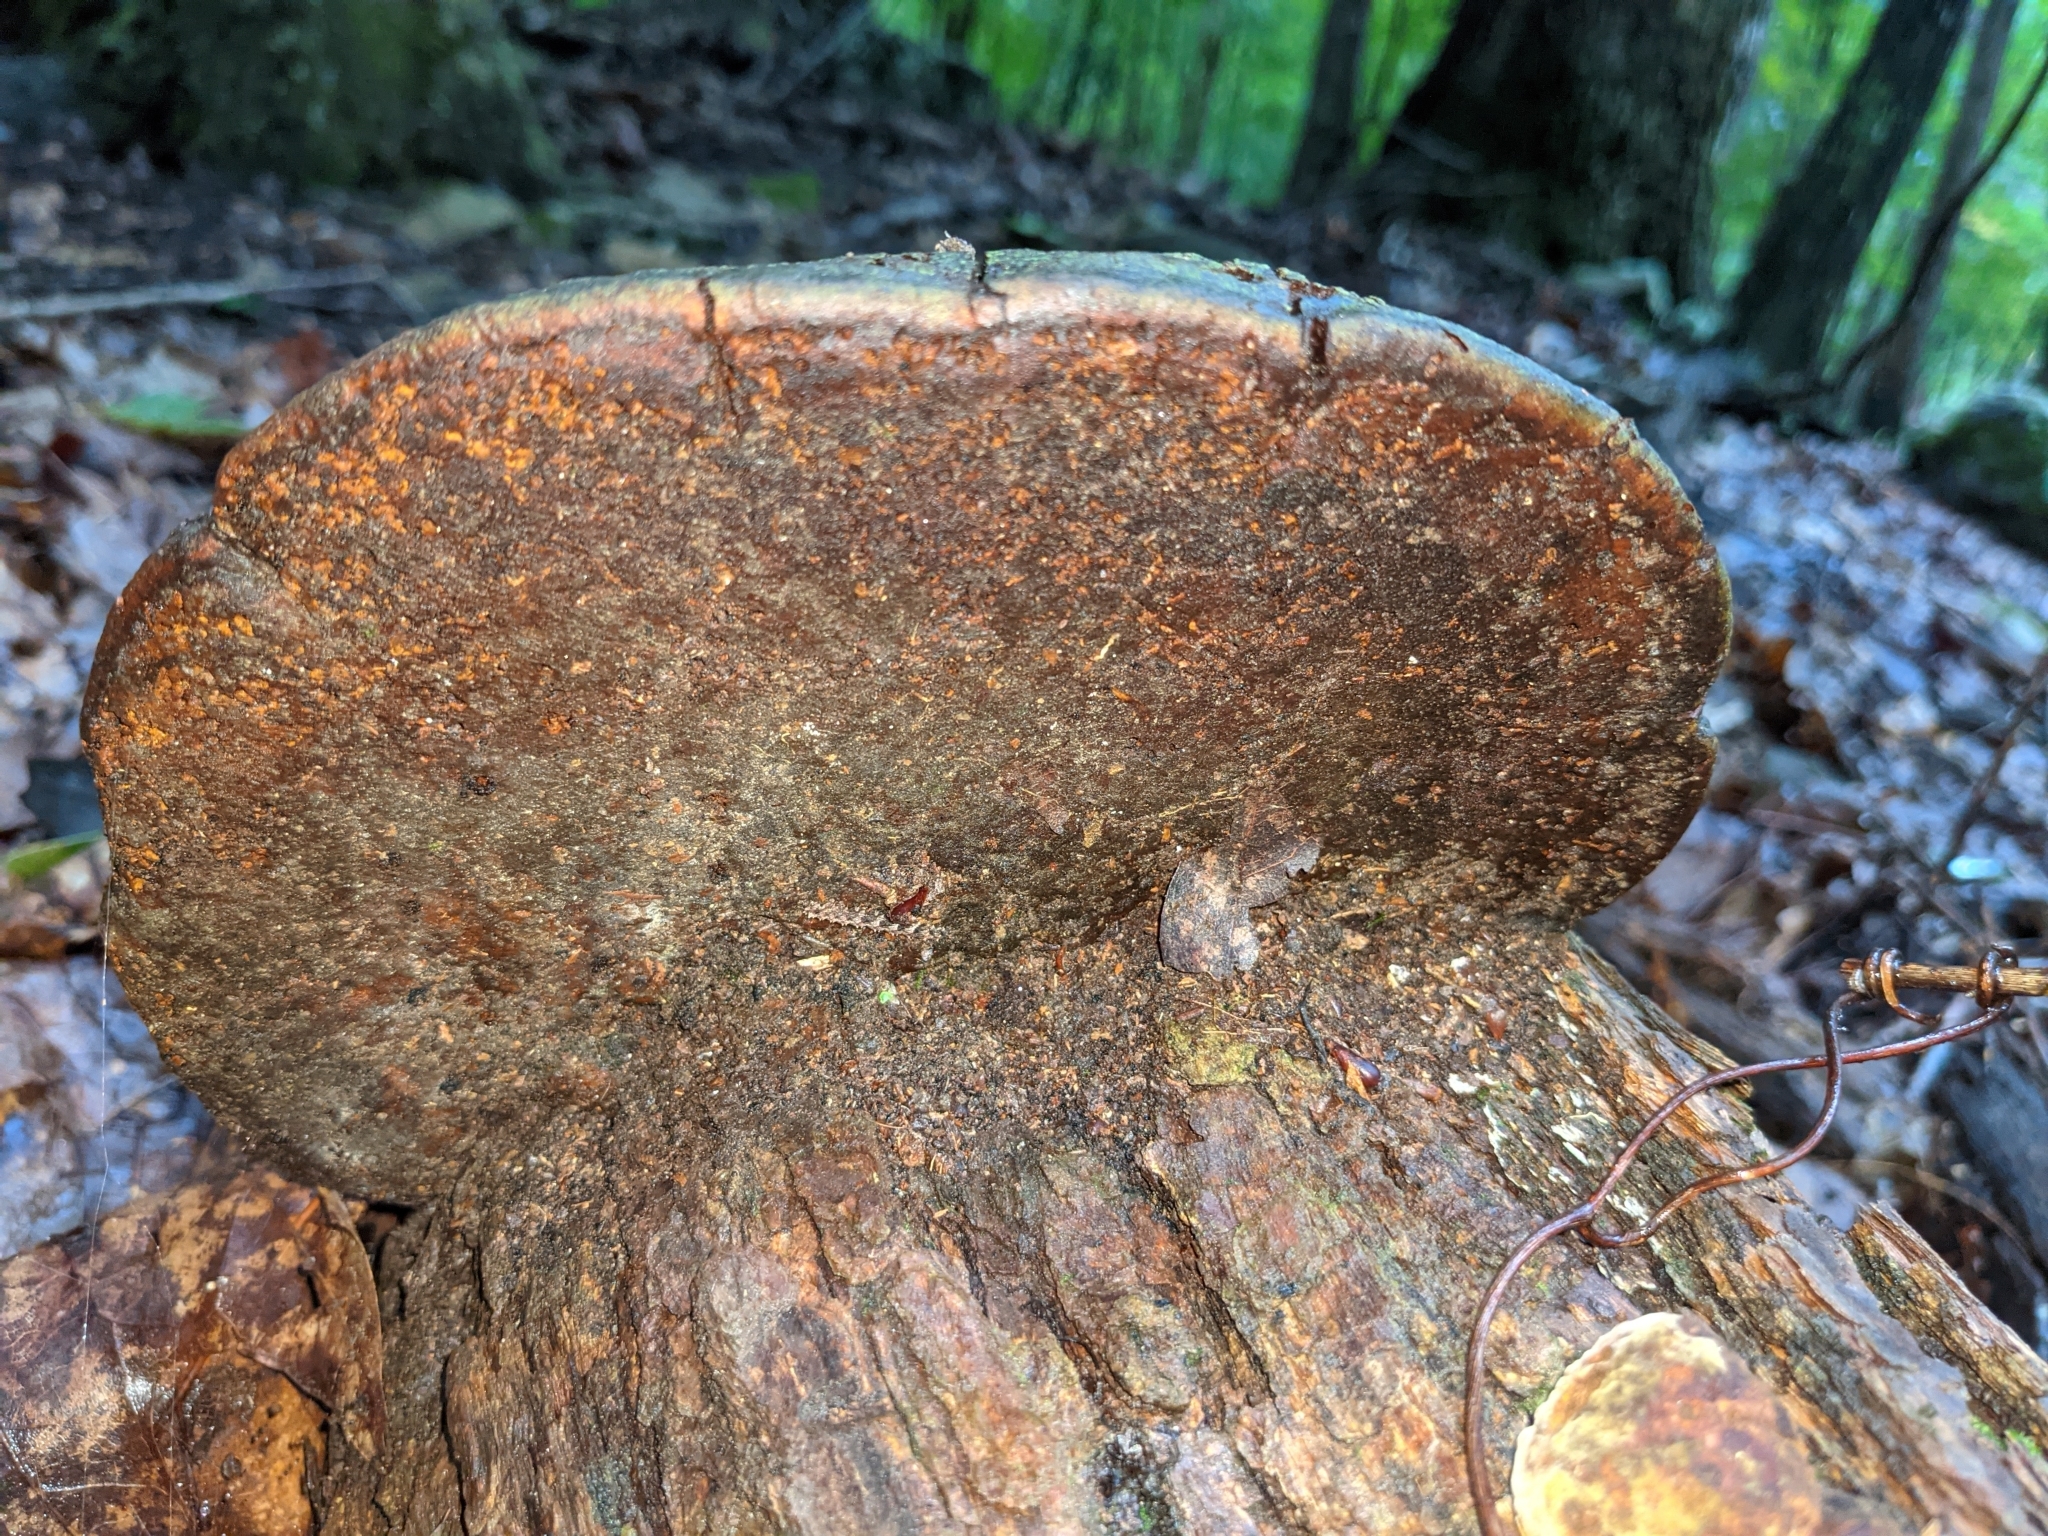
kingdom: Fungi
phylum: Basidiomycota
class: Agaricomycetes
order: Hymenochaetales
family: Hymenochaetaceae
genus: Phellinus
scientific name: Phellinus robiniae
